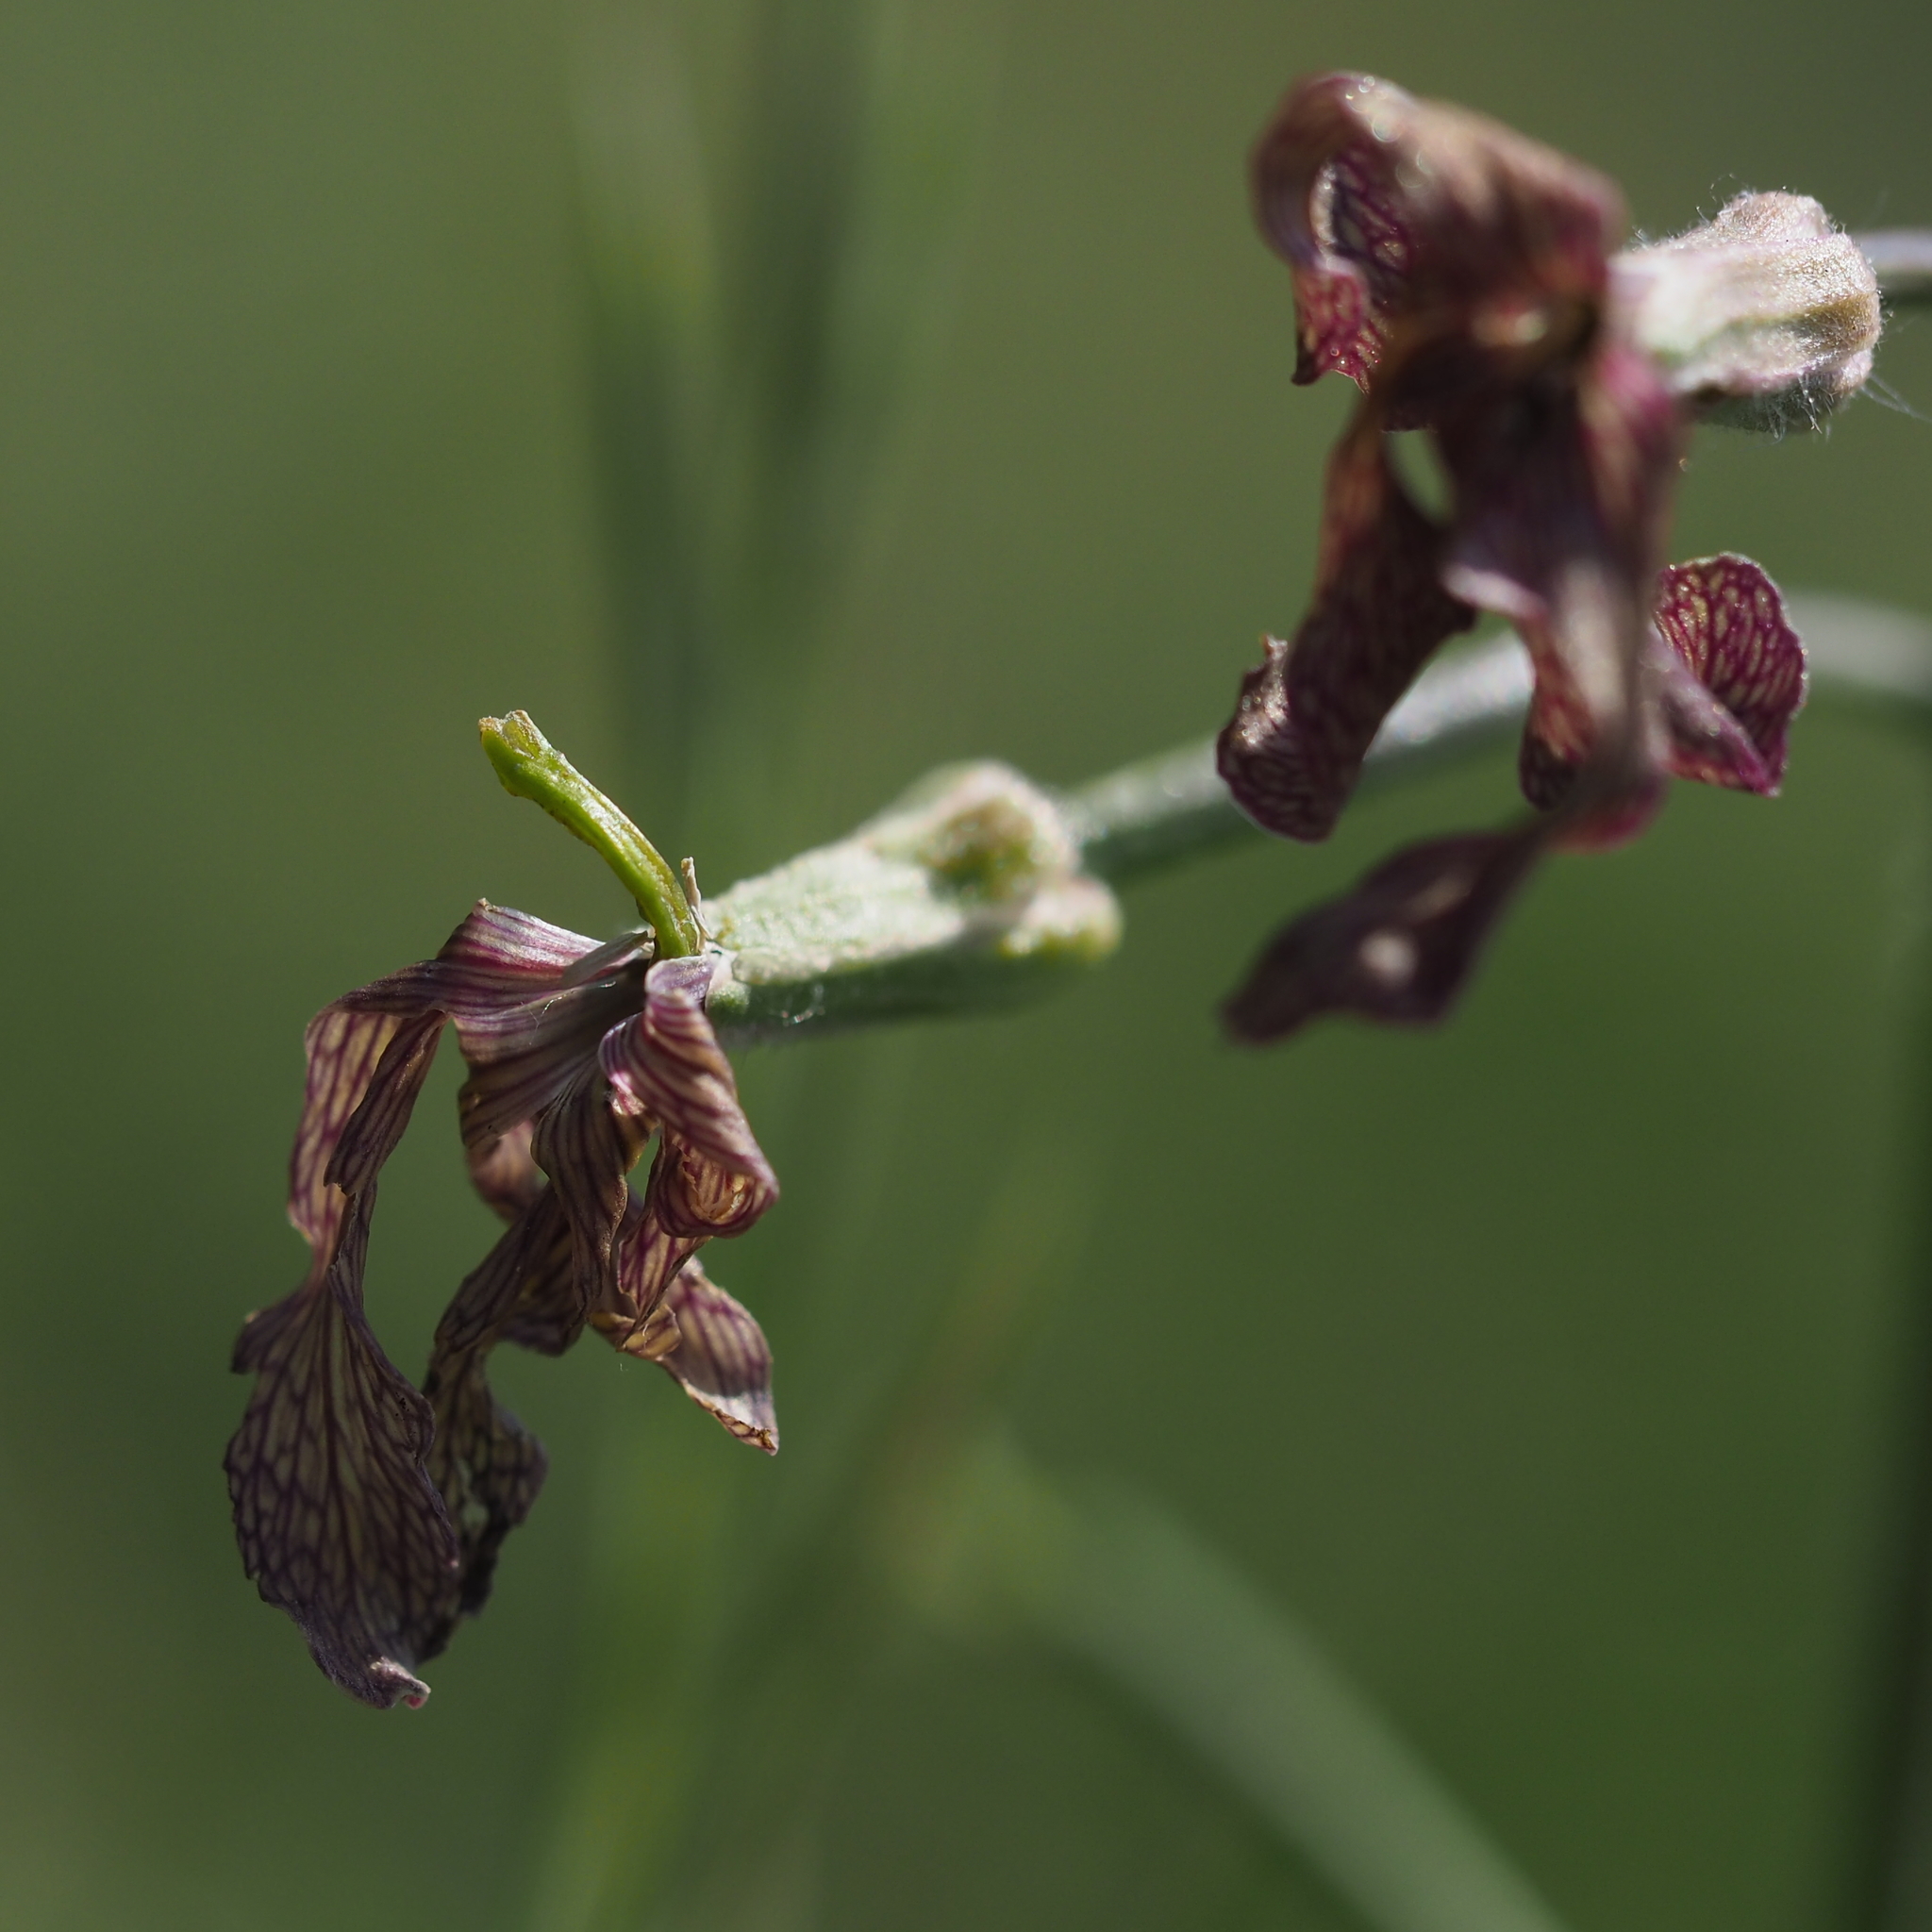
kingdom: Plantae
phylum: Tracheophyta
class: Magnoliopsida
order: Brassicales
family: Brassicaceae
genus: Hesperis
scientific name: Hesperis tristis
